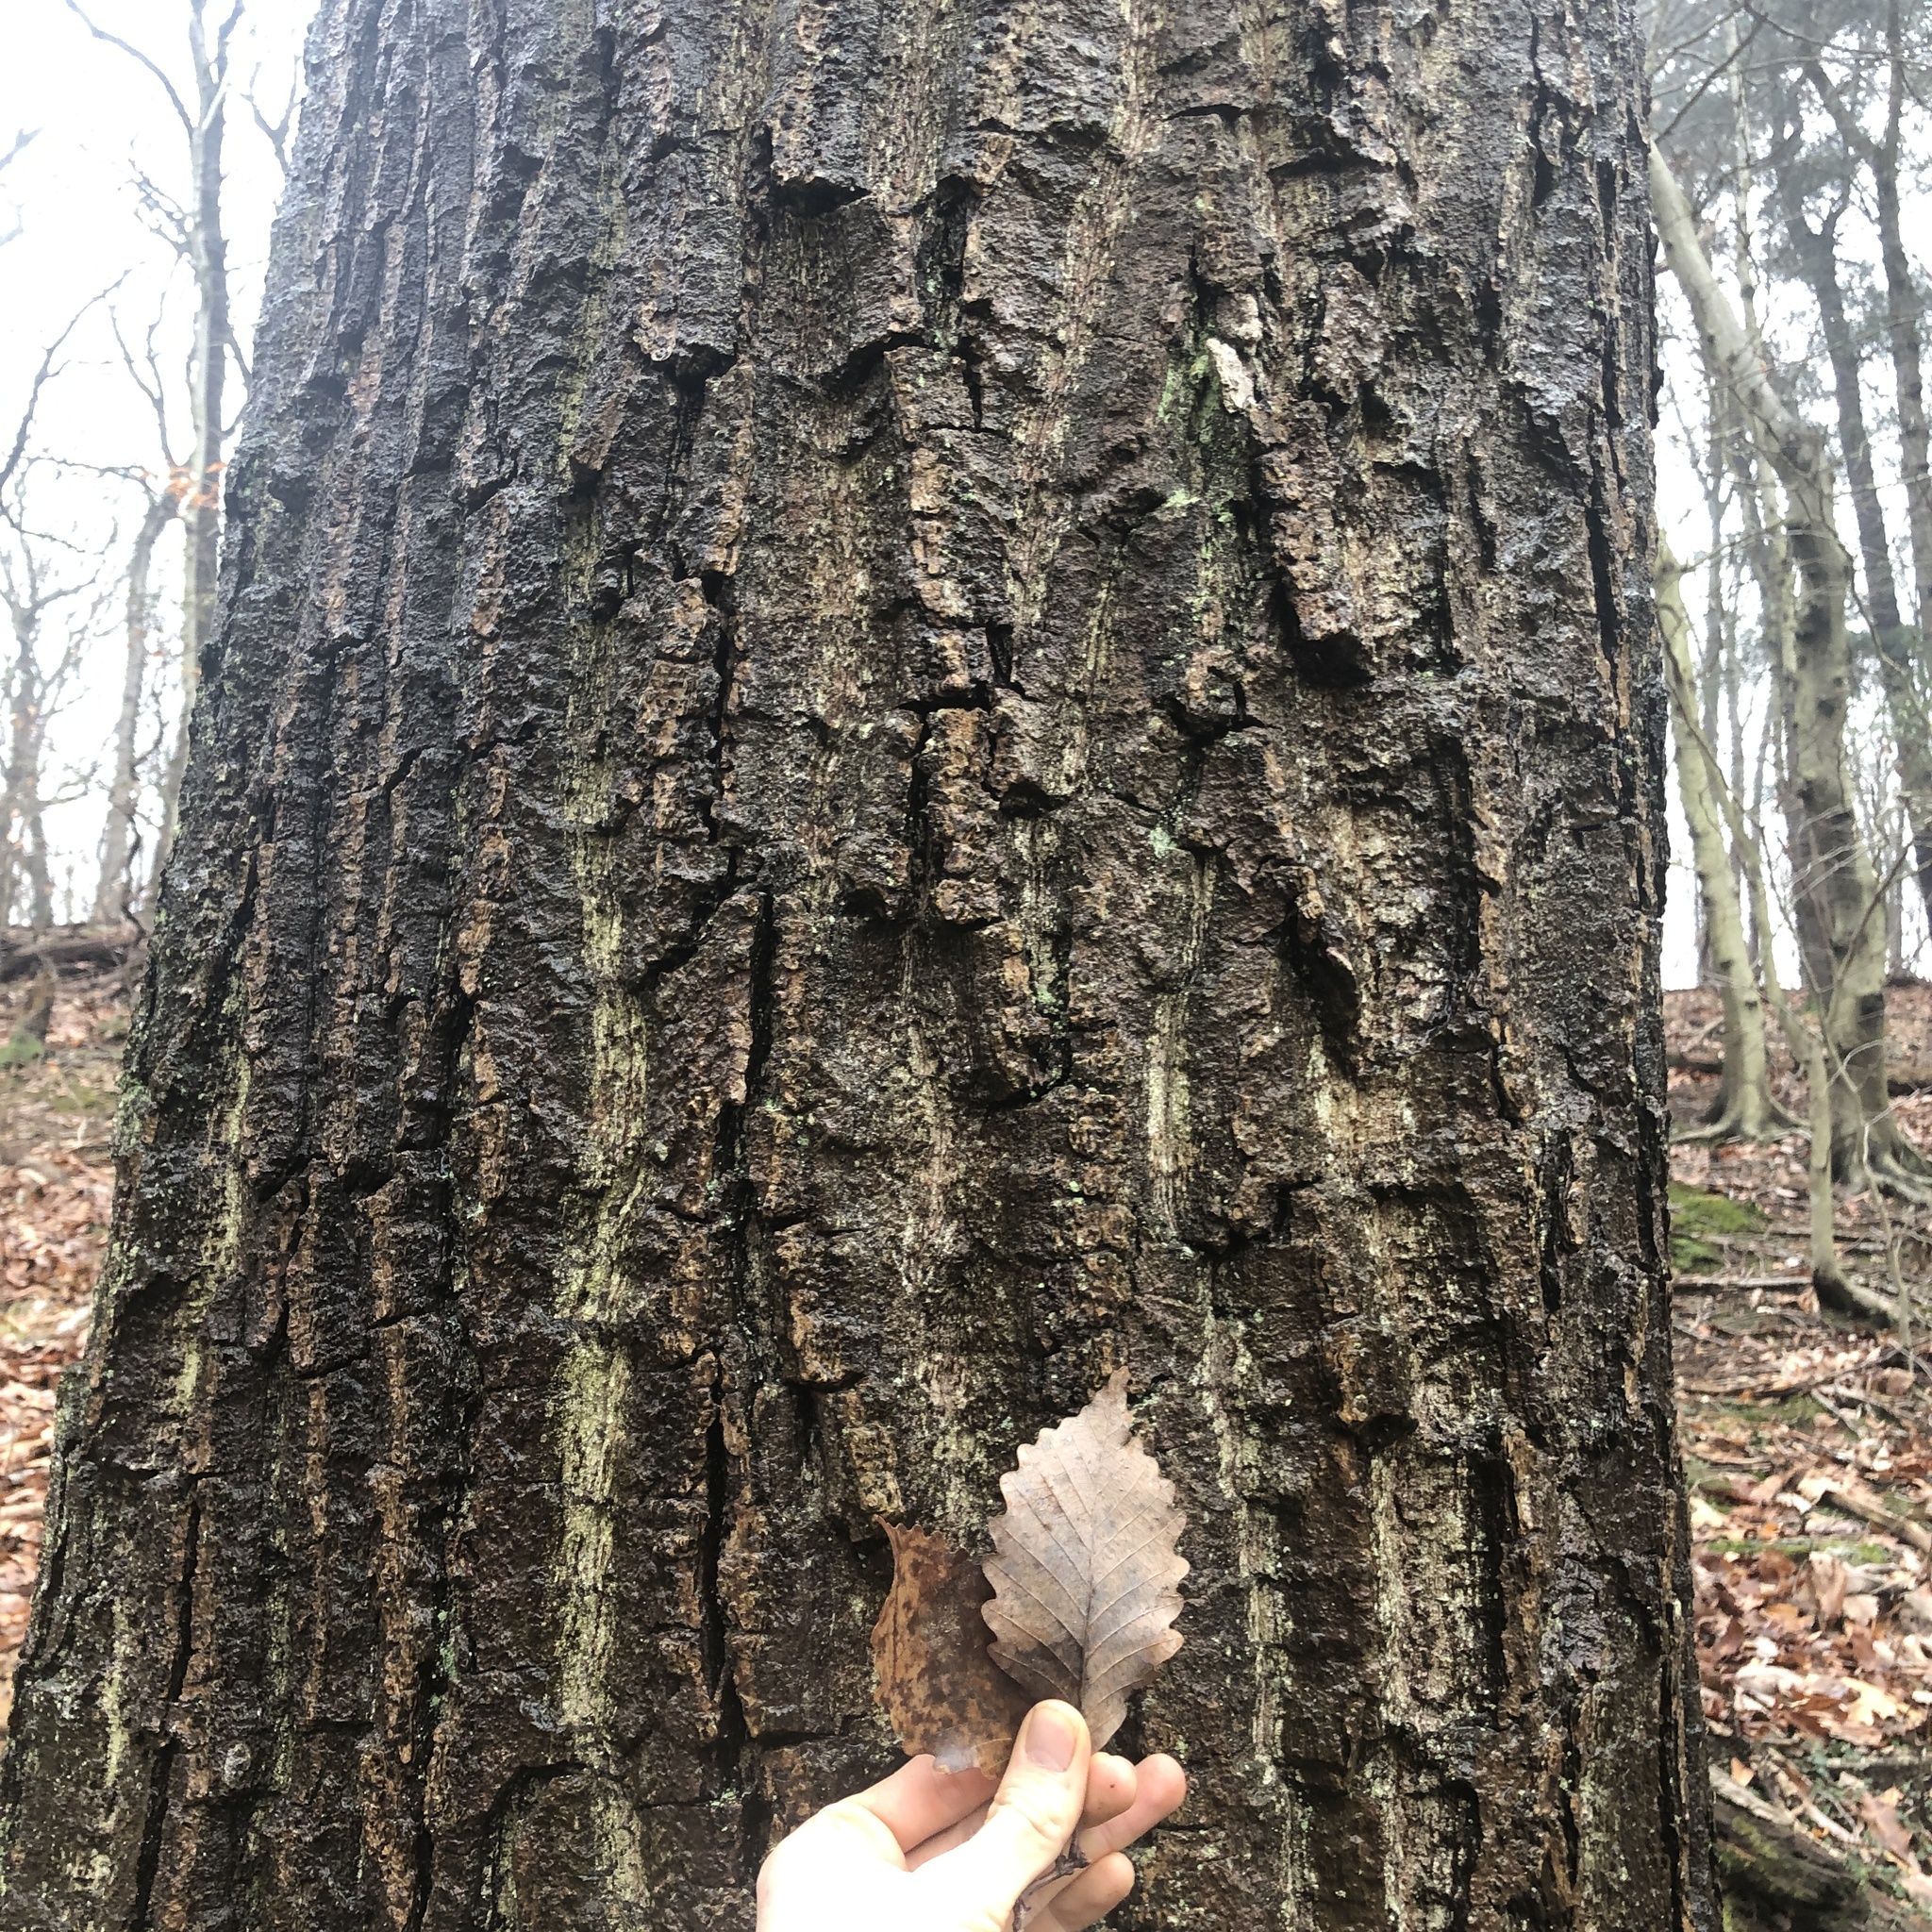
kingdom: Plantae
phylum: Tracheophyta
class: Magnoliopsida
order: Fagales
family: Fagaceae
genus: Quercus
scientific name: Quercus montana
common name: Chestnut oak
